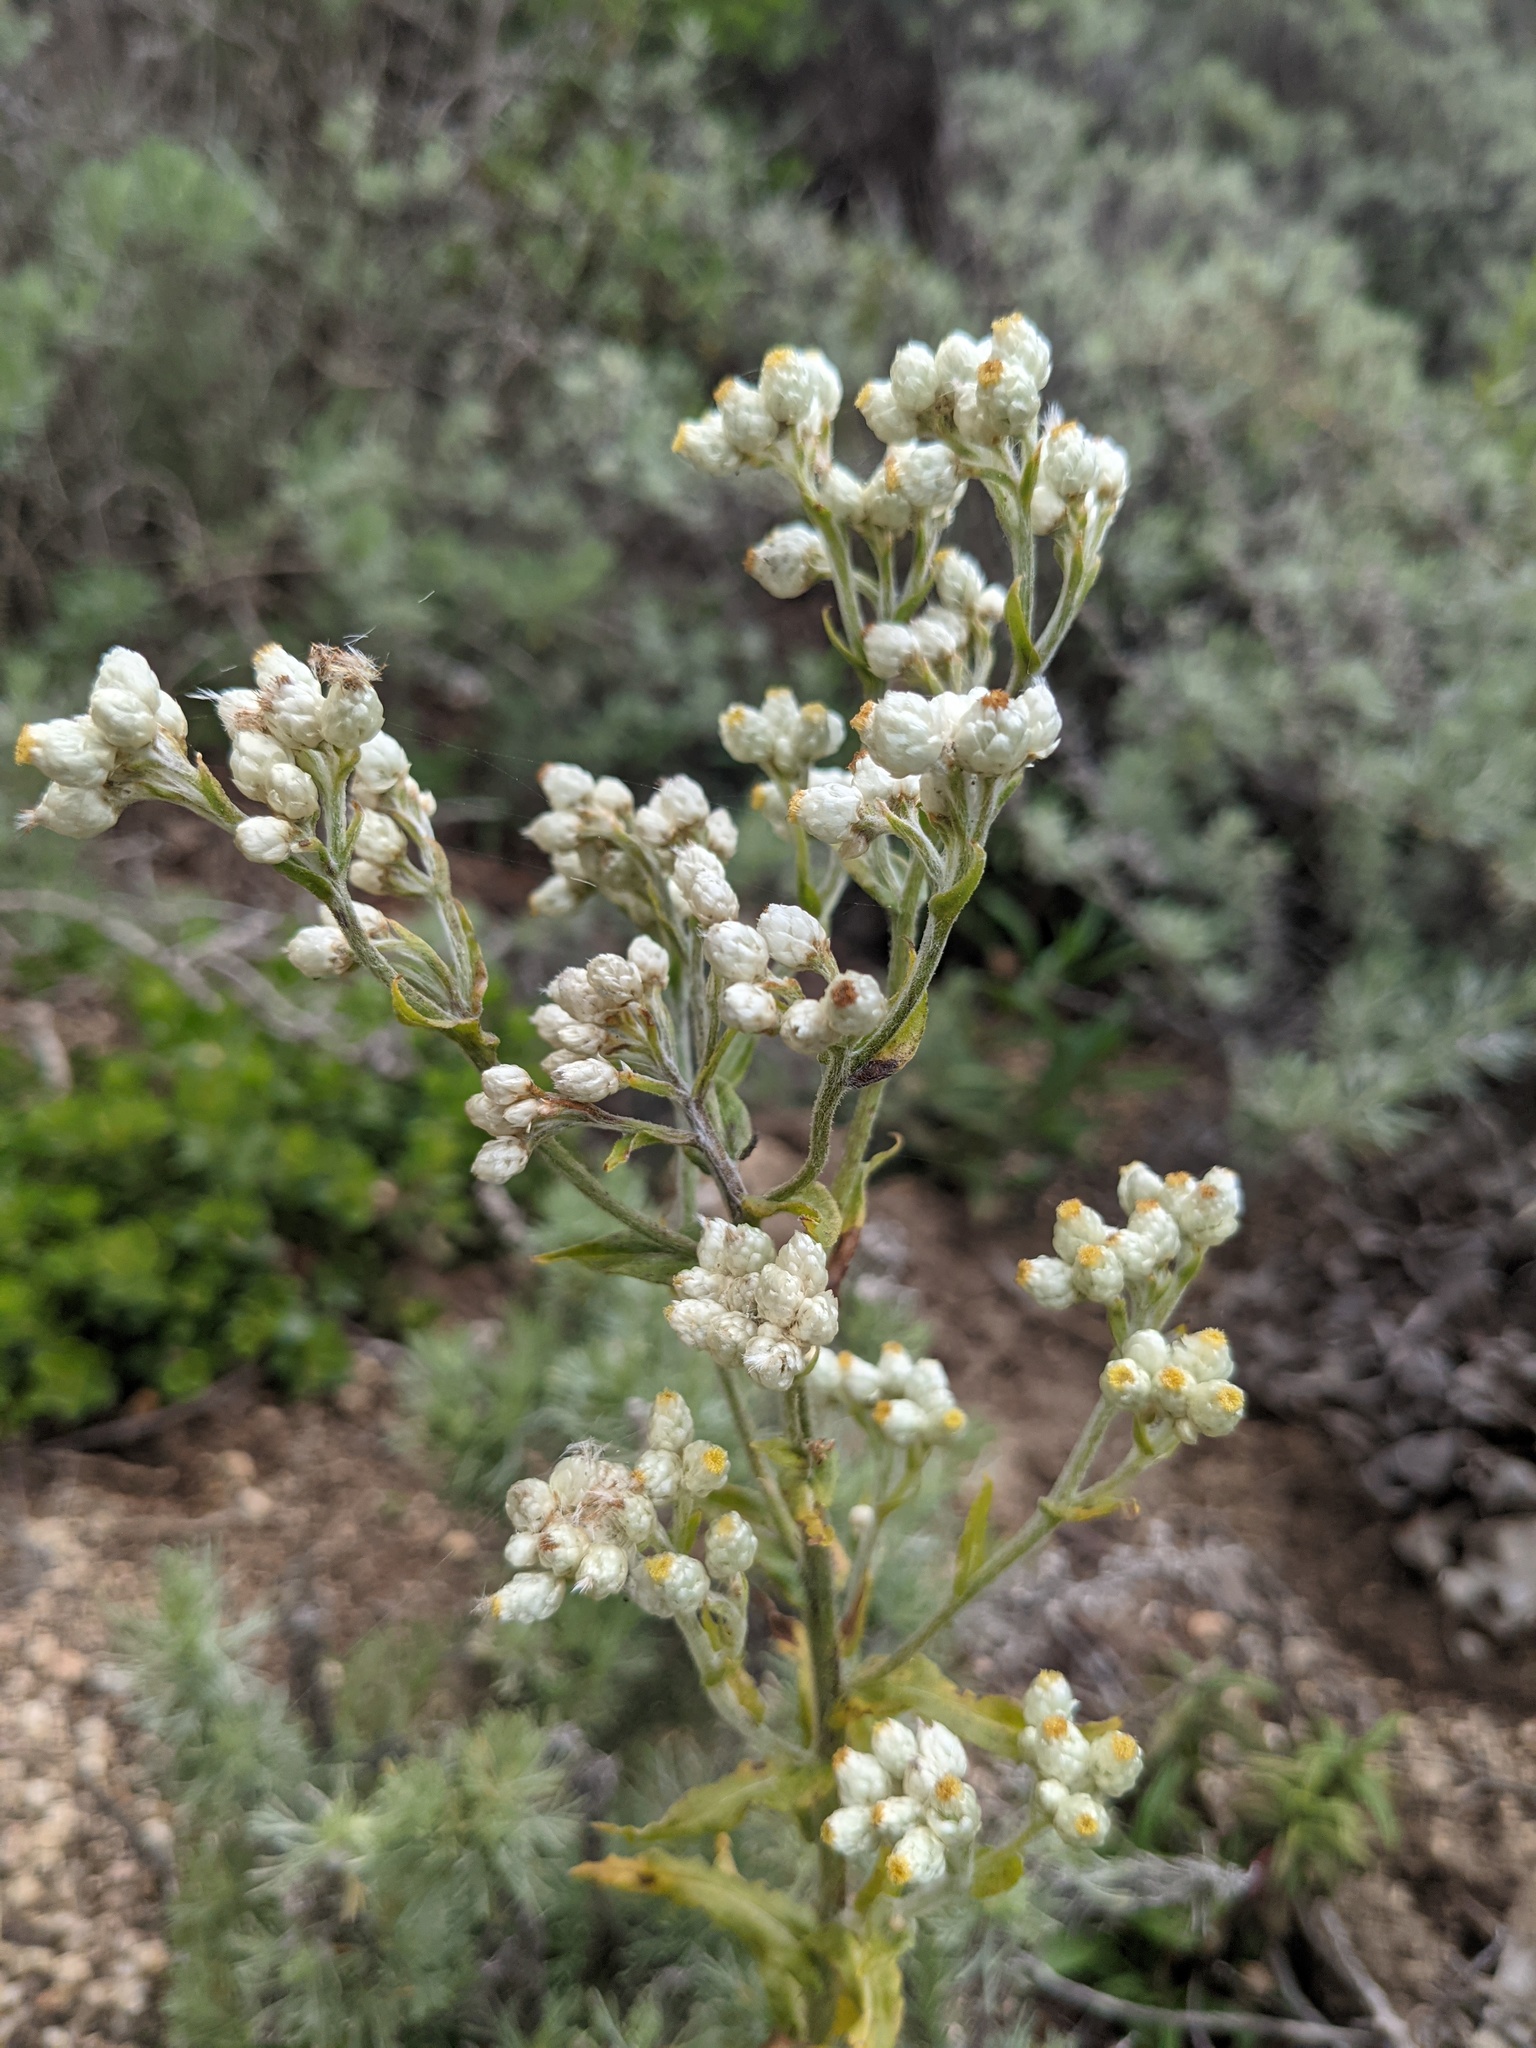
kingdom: Plantae
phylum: Tracheophyta
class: Magnoliopsida
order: Asterales
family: Asteraceae
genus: Pseudognaphalium
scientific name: Pseudognaphalium californicum
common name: California rabbit-tobacco
